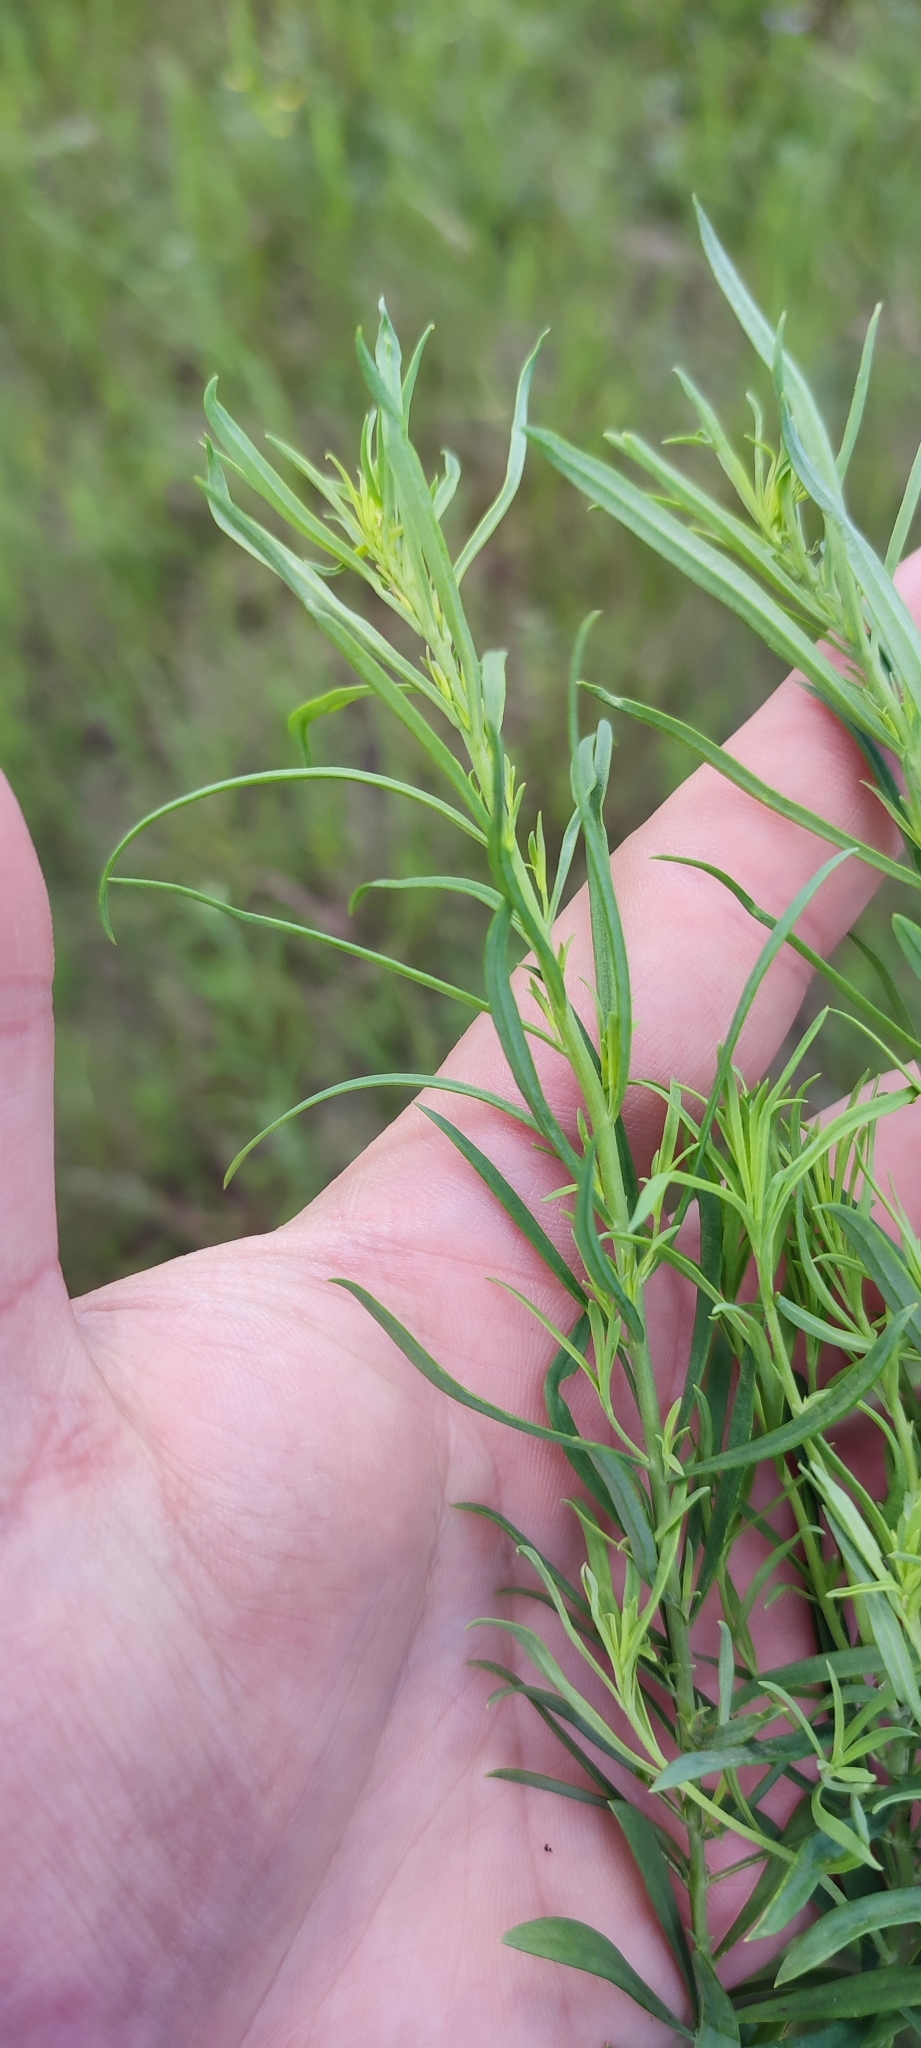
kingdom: Plantae
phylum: Tracheophyta
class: Magnoliopsida
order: Asterales
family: Asteraceae
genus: Artemisia
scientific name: Artemisia dracunculus
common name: Tarragon
